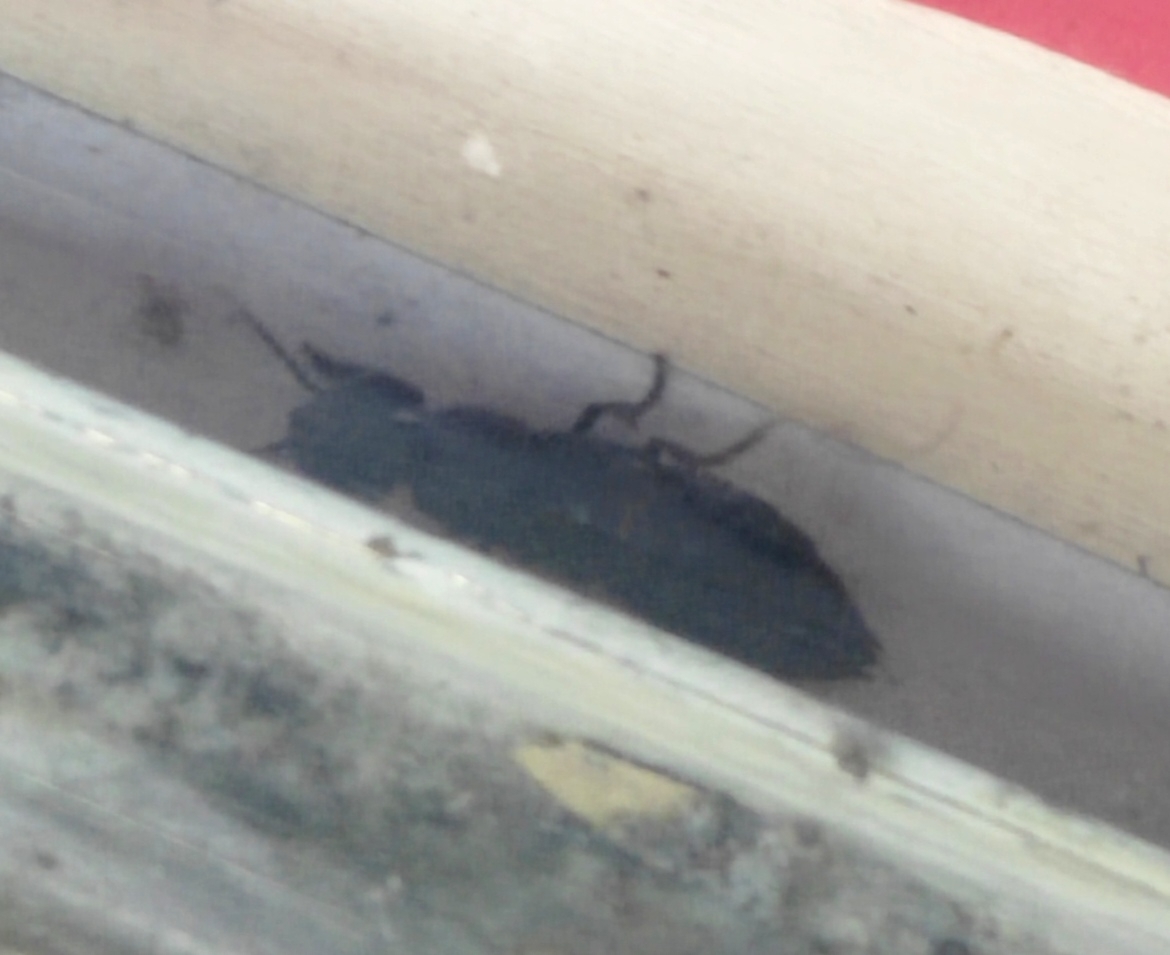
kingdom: Animalia
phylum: Arthropoda
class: Insecta
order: Coleoptera
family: Staphylinidae
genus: Ocypus
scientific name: Ocypus olens
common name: Devil's coach-horse
